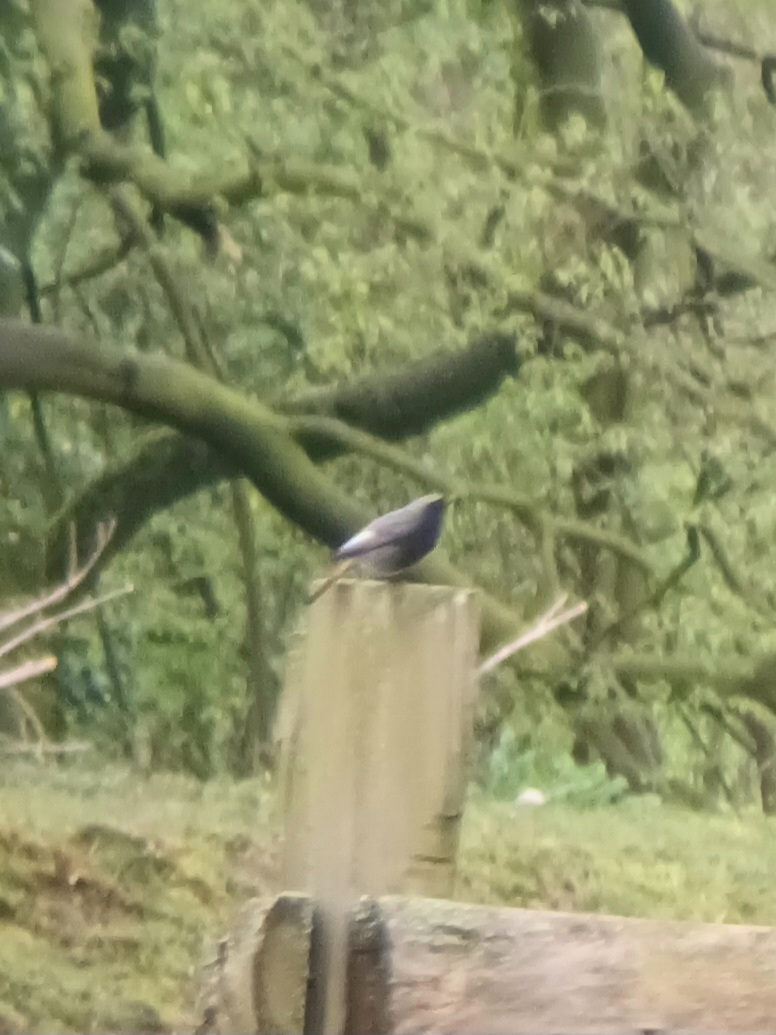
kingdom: Animalia
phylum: Chordata
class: Aves
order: Passeriformes
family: Muscicapidae
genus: Phoenicurus
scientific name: Phoenicurus ochruros
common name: Black redstart
